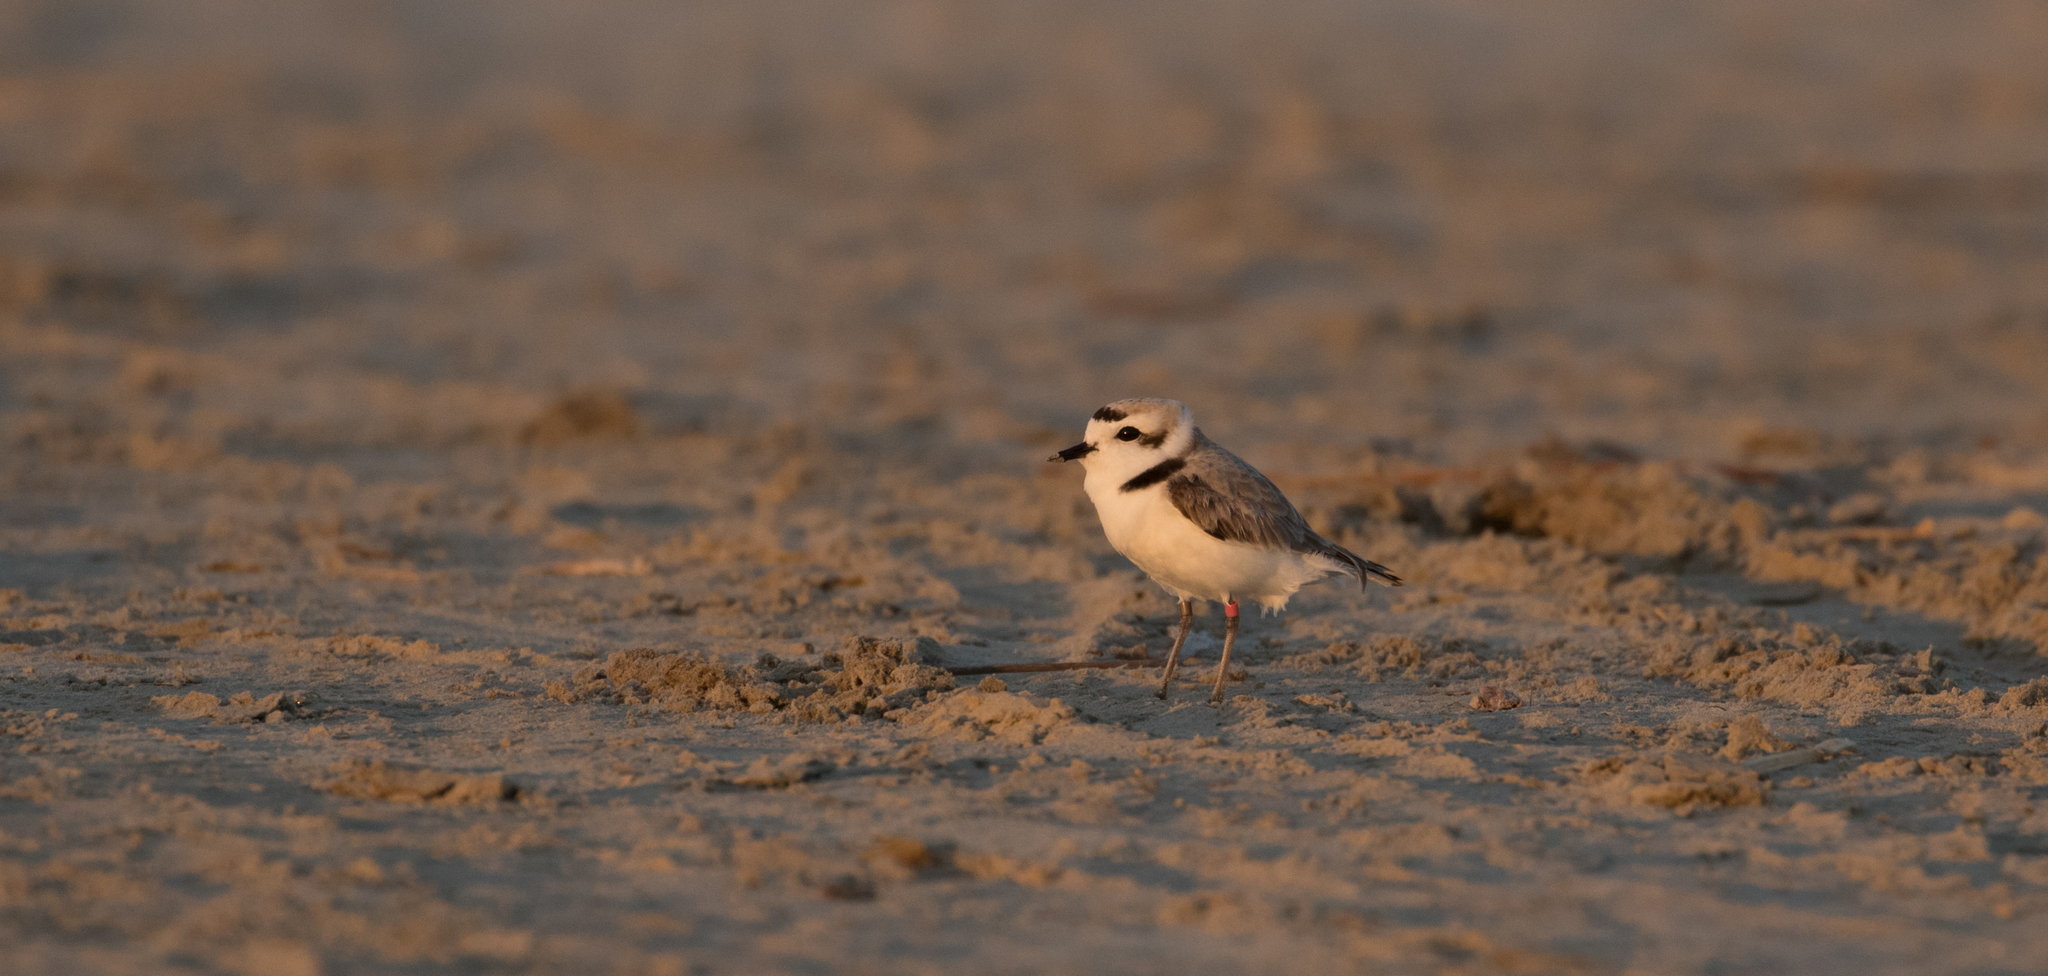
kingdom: Animalia
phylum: Chordata
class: Aves
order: Charadriiformes
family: Charadriidae
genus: Anarhynchus
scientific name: Anarhynchus
